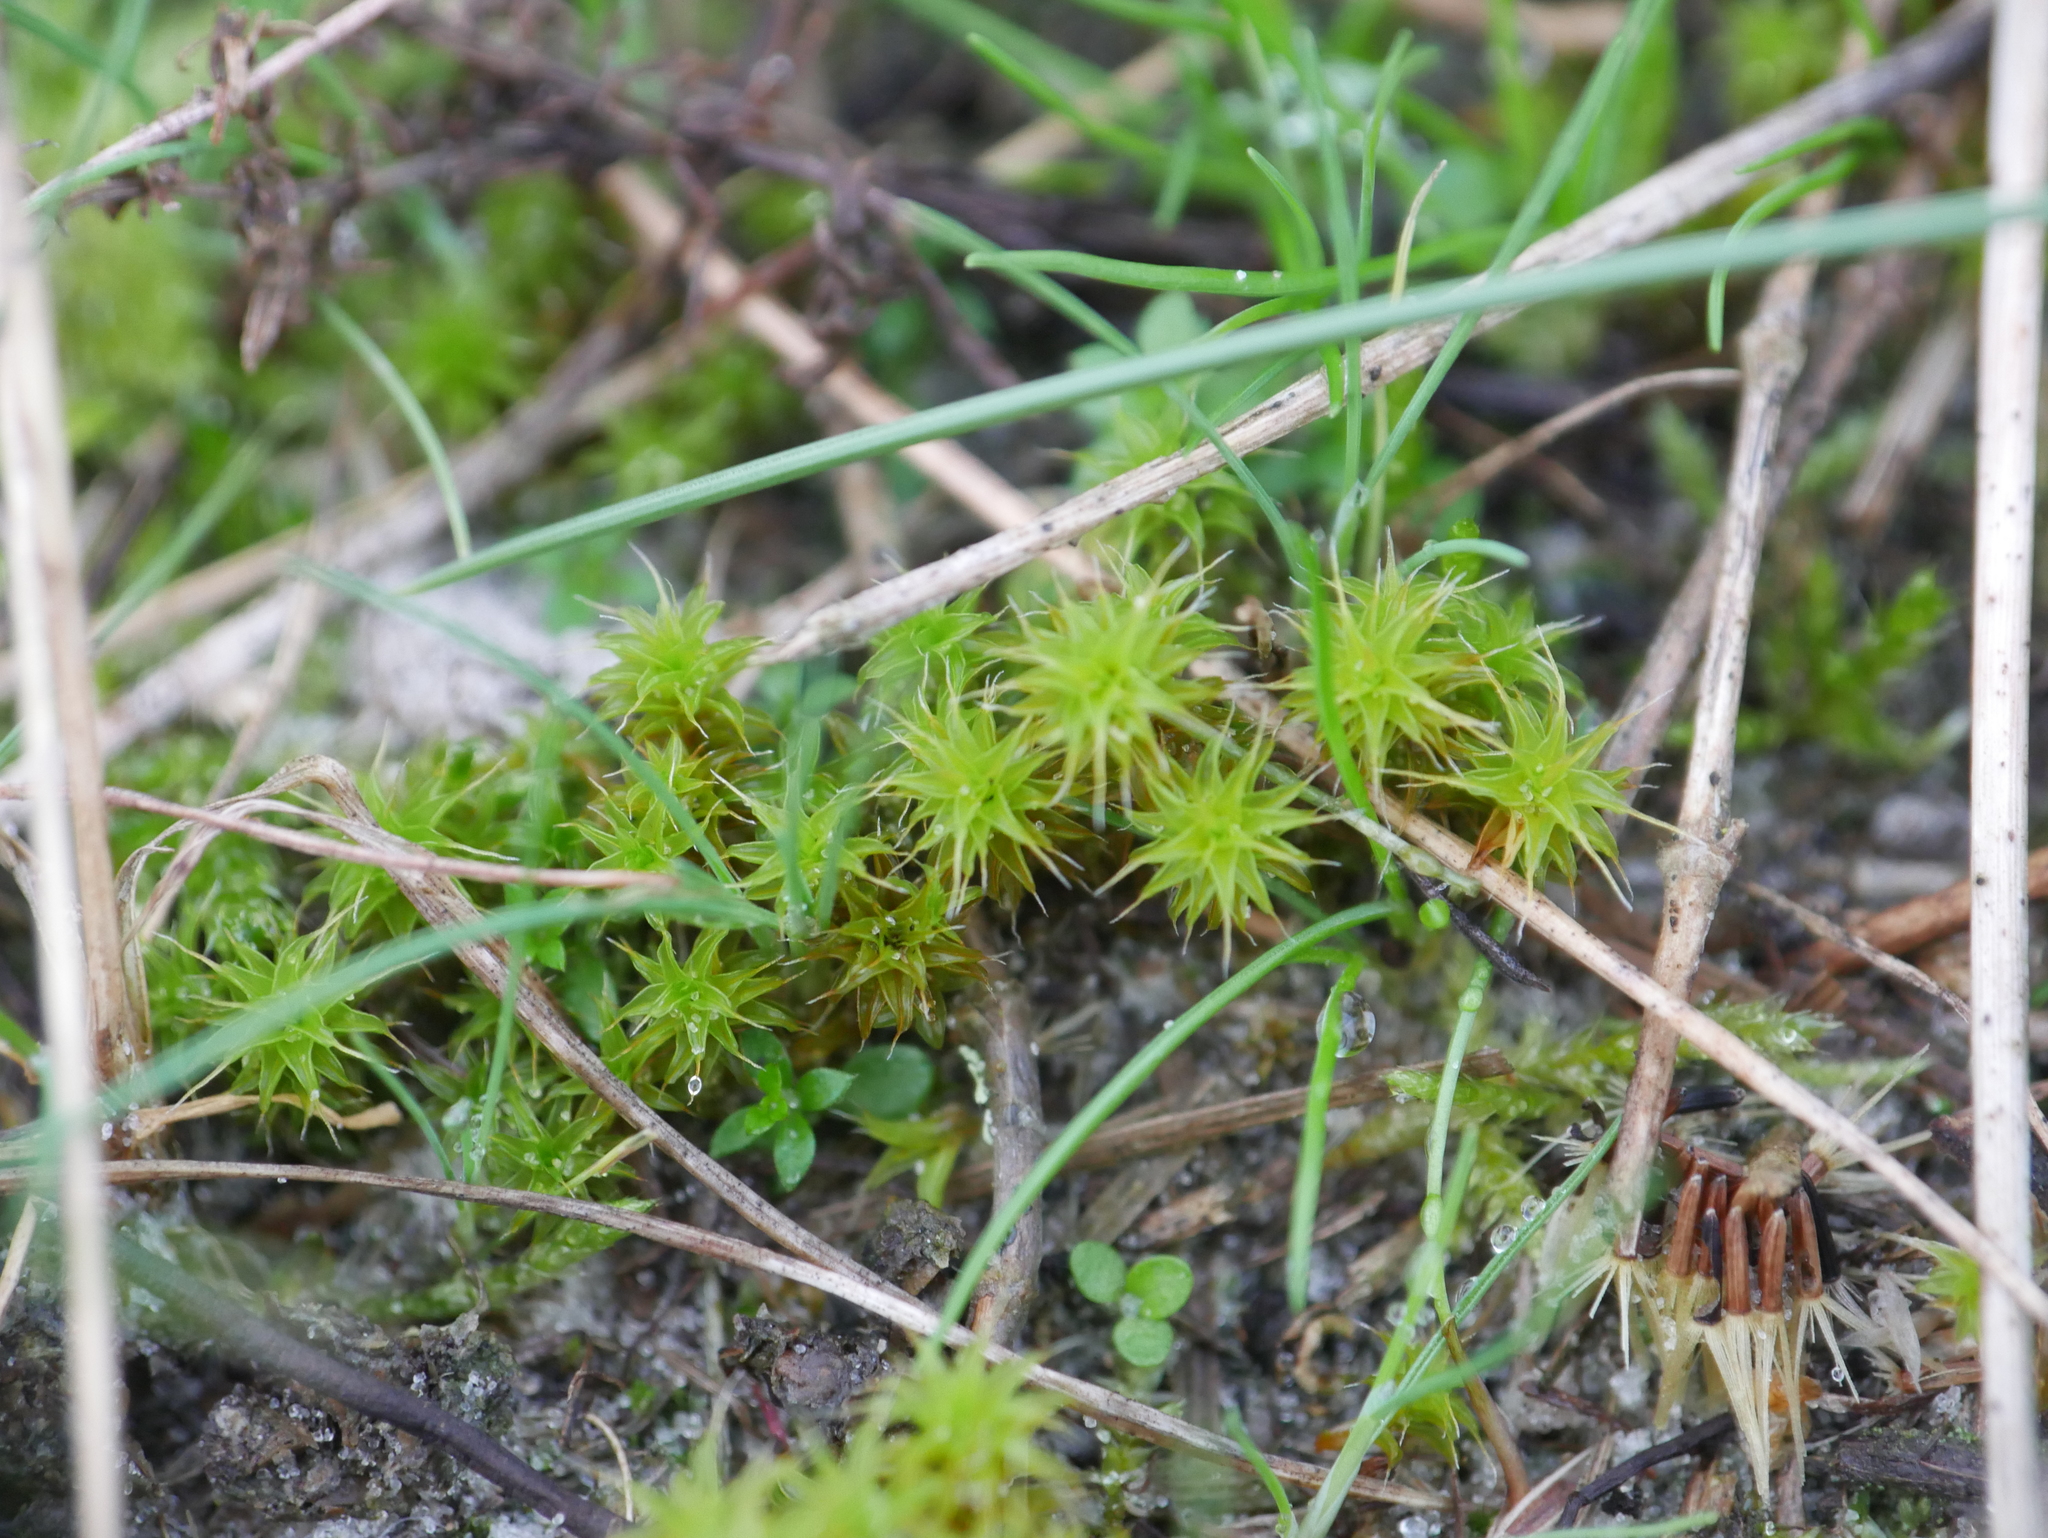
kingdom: Plantae
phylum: Bryophyta
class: Bryopsida
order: Pottiales
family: Pottiaceae
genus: Syntrichia
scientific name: Syntrichia ruralis
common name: Sidewalk screw moss
